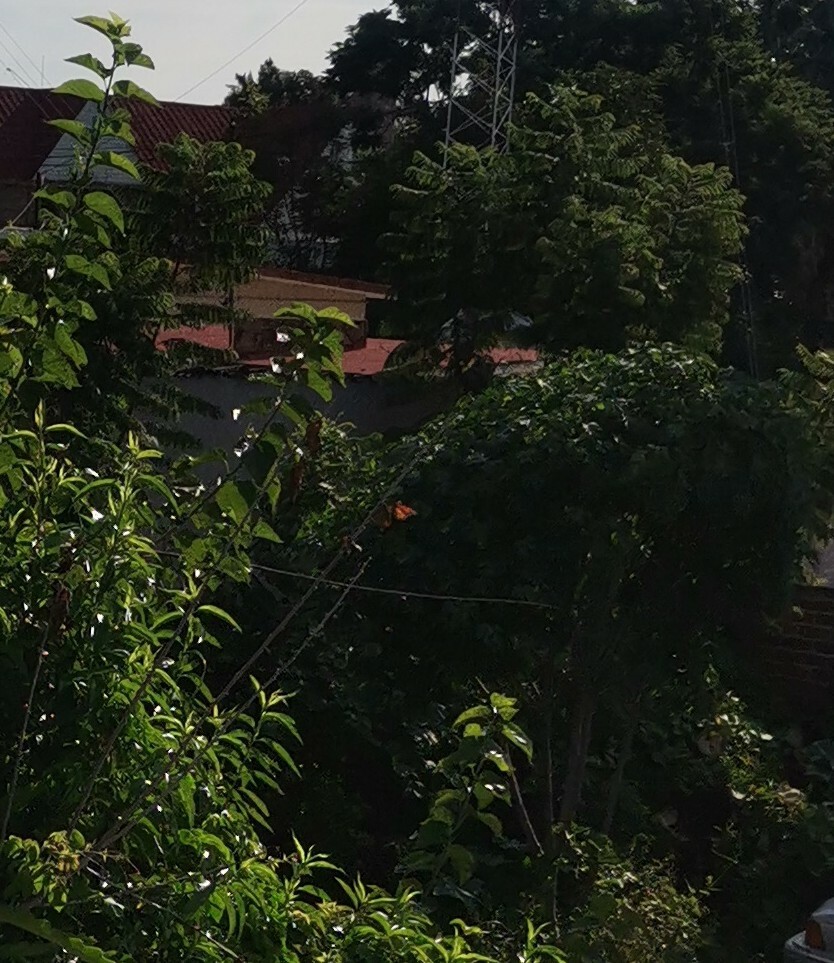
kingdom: Animalia
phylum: Arthropoda
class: Insecta
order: Lepidoptera
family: Nymphalidae
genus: Danaus
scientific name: Danaus plexippus
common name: Monarch
